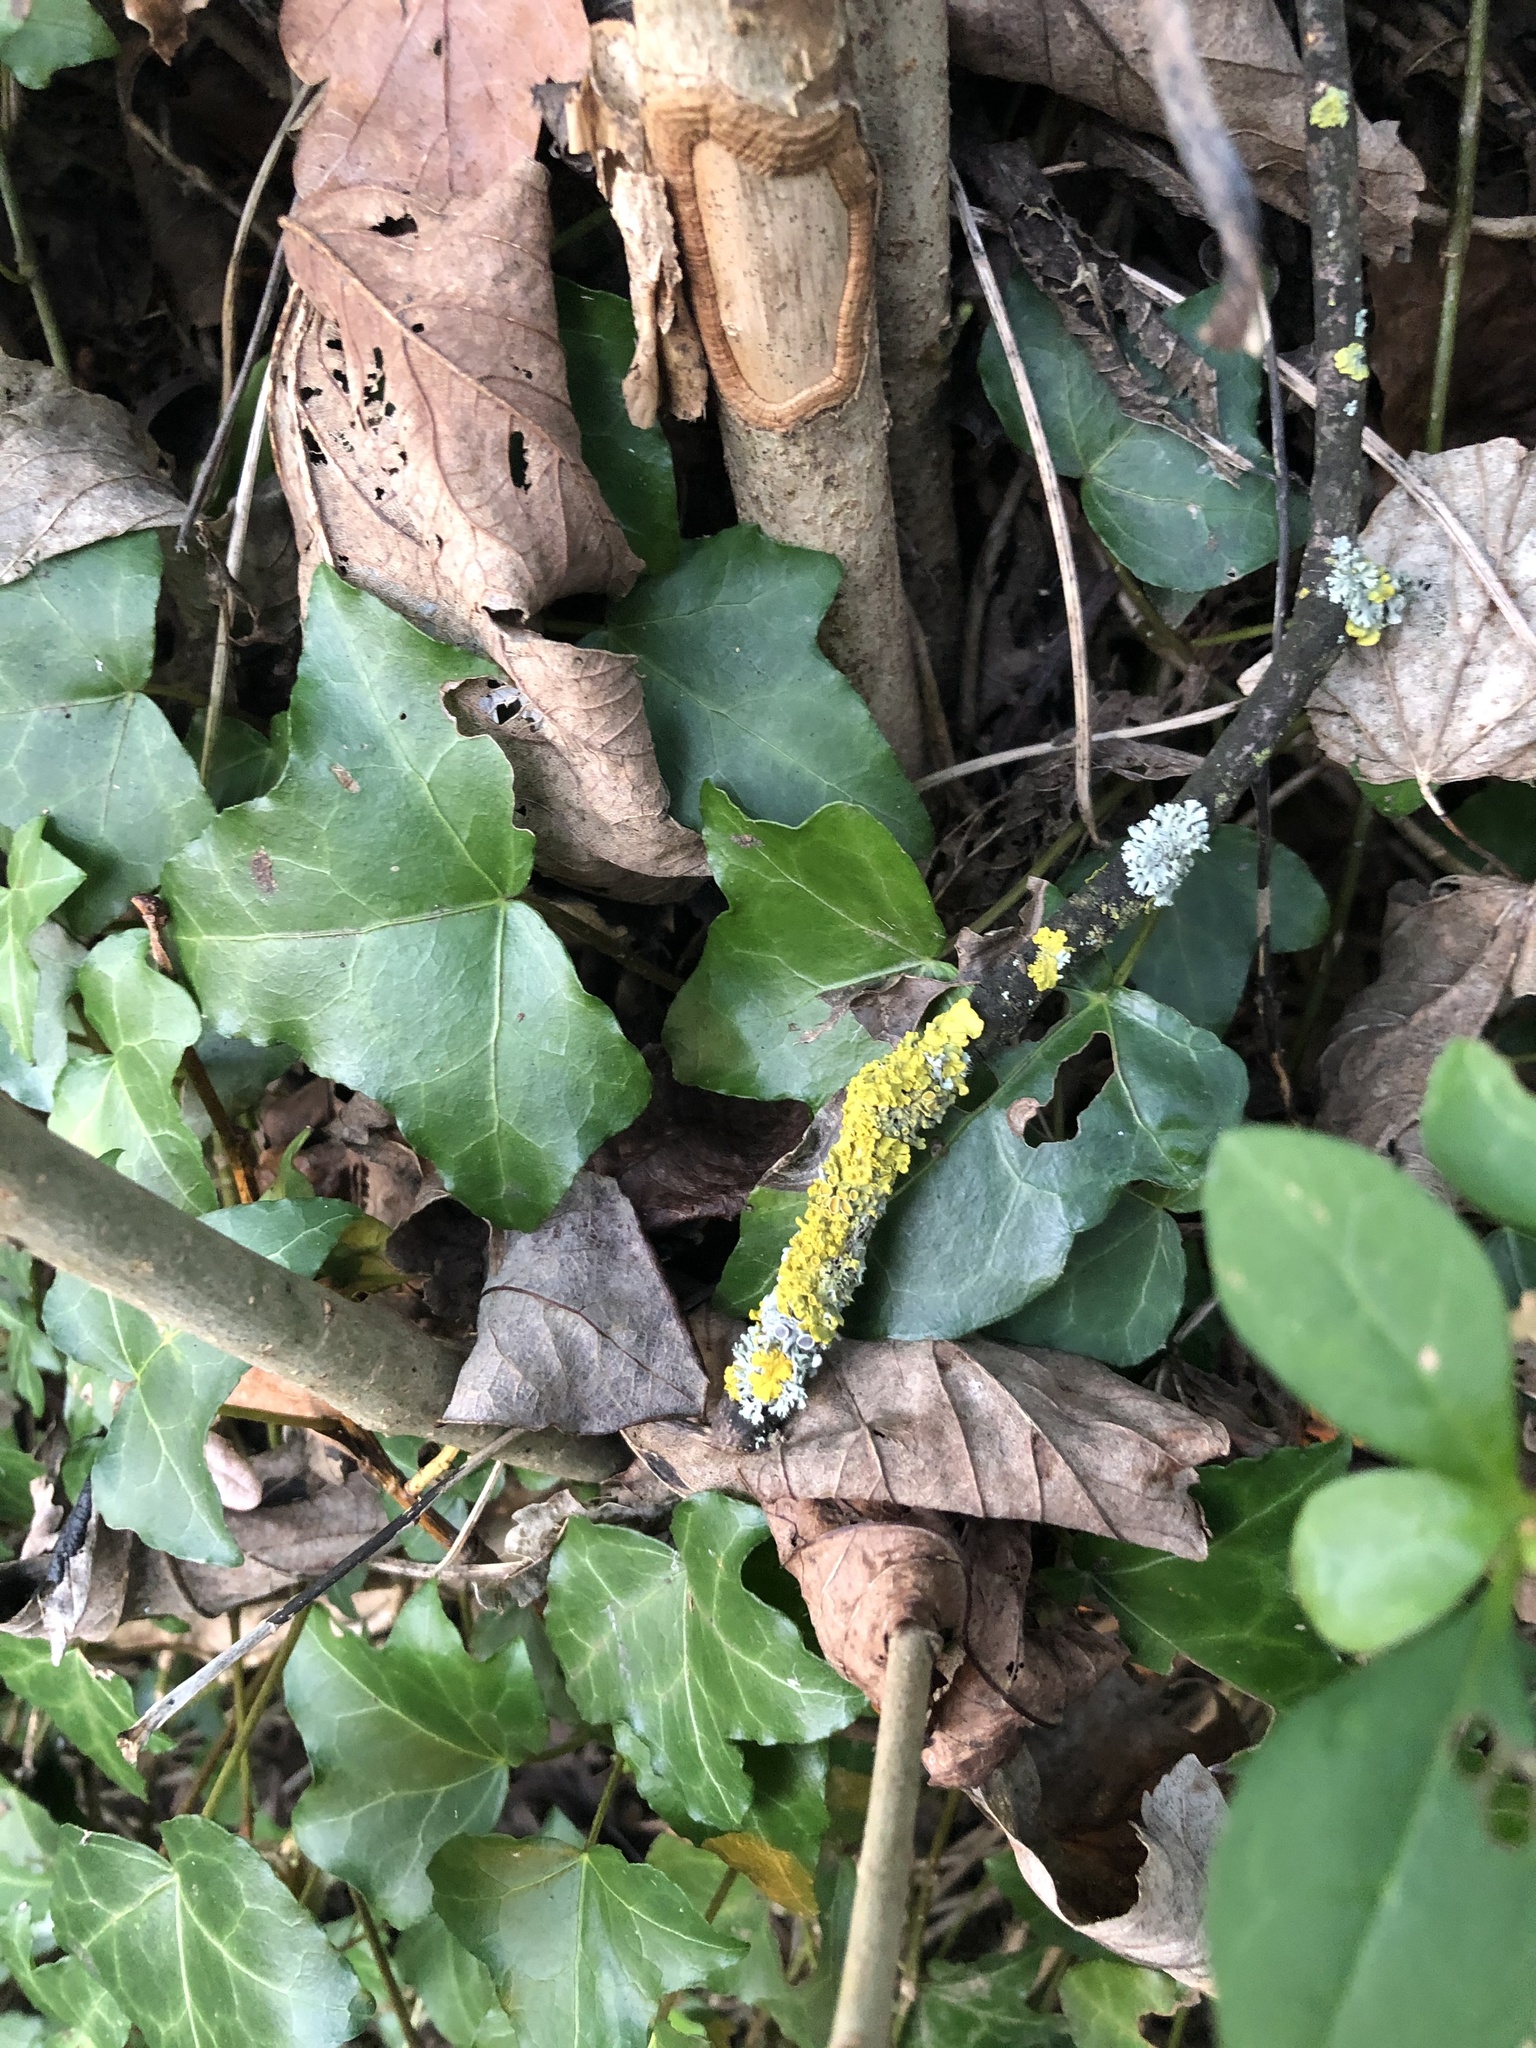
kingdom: Fungi
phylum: Ascomycota
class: Lecanoromycetes
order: Teloschistales
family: Teloschistaceae
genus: Xanthoria
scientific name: Xanthoria parietina
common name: Common orange lichen
